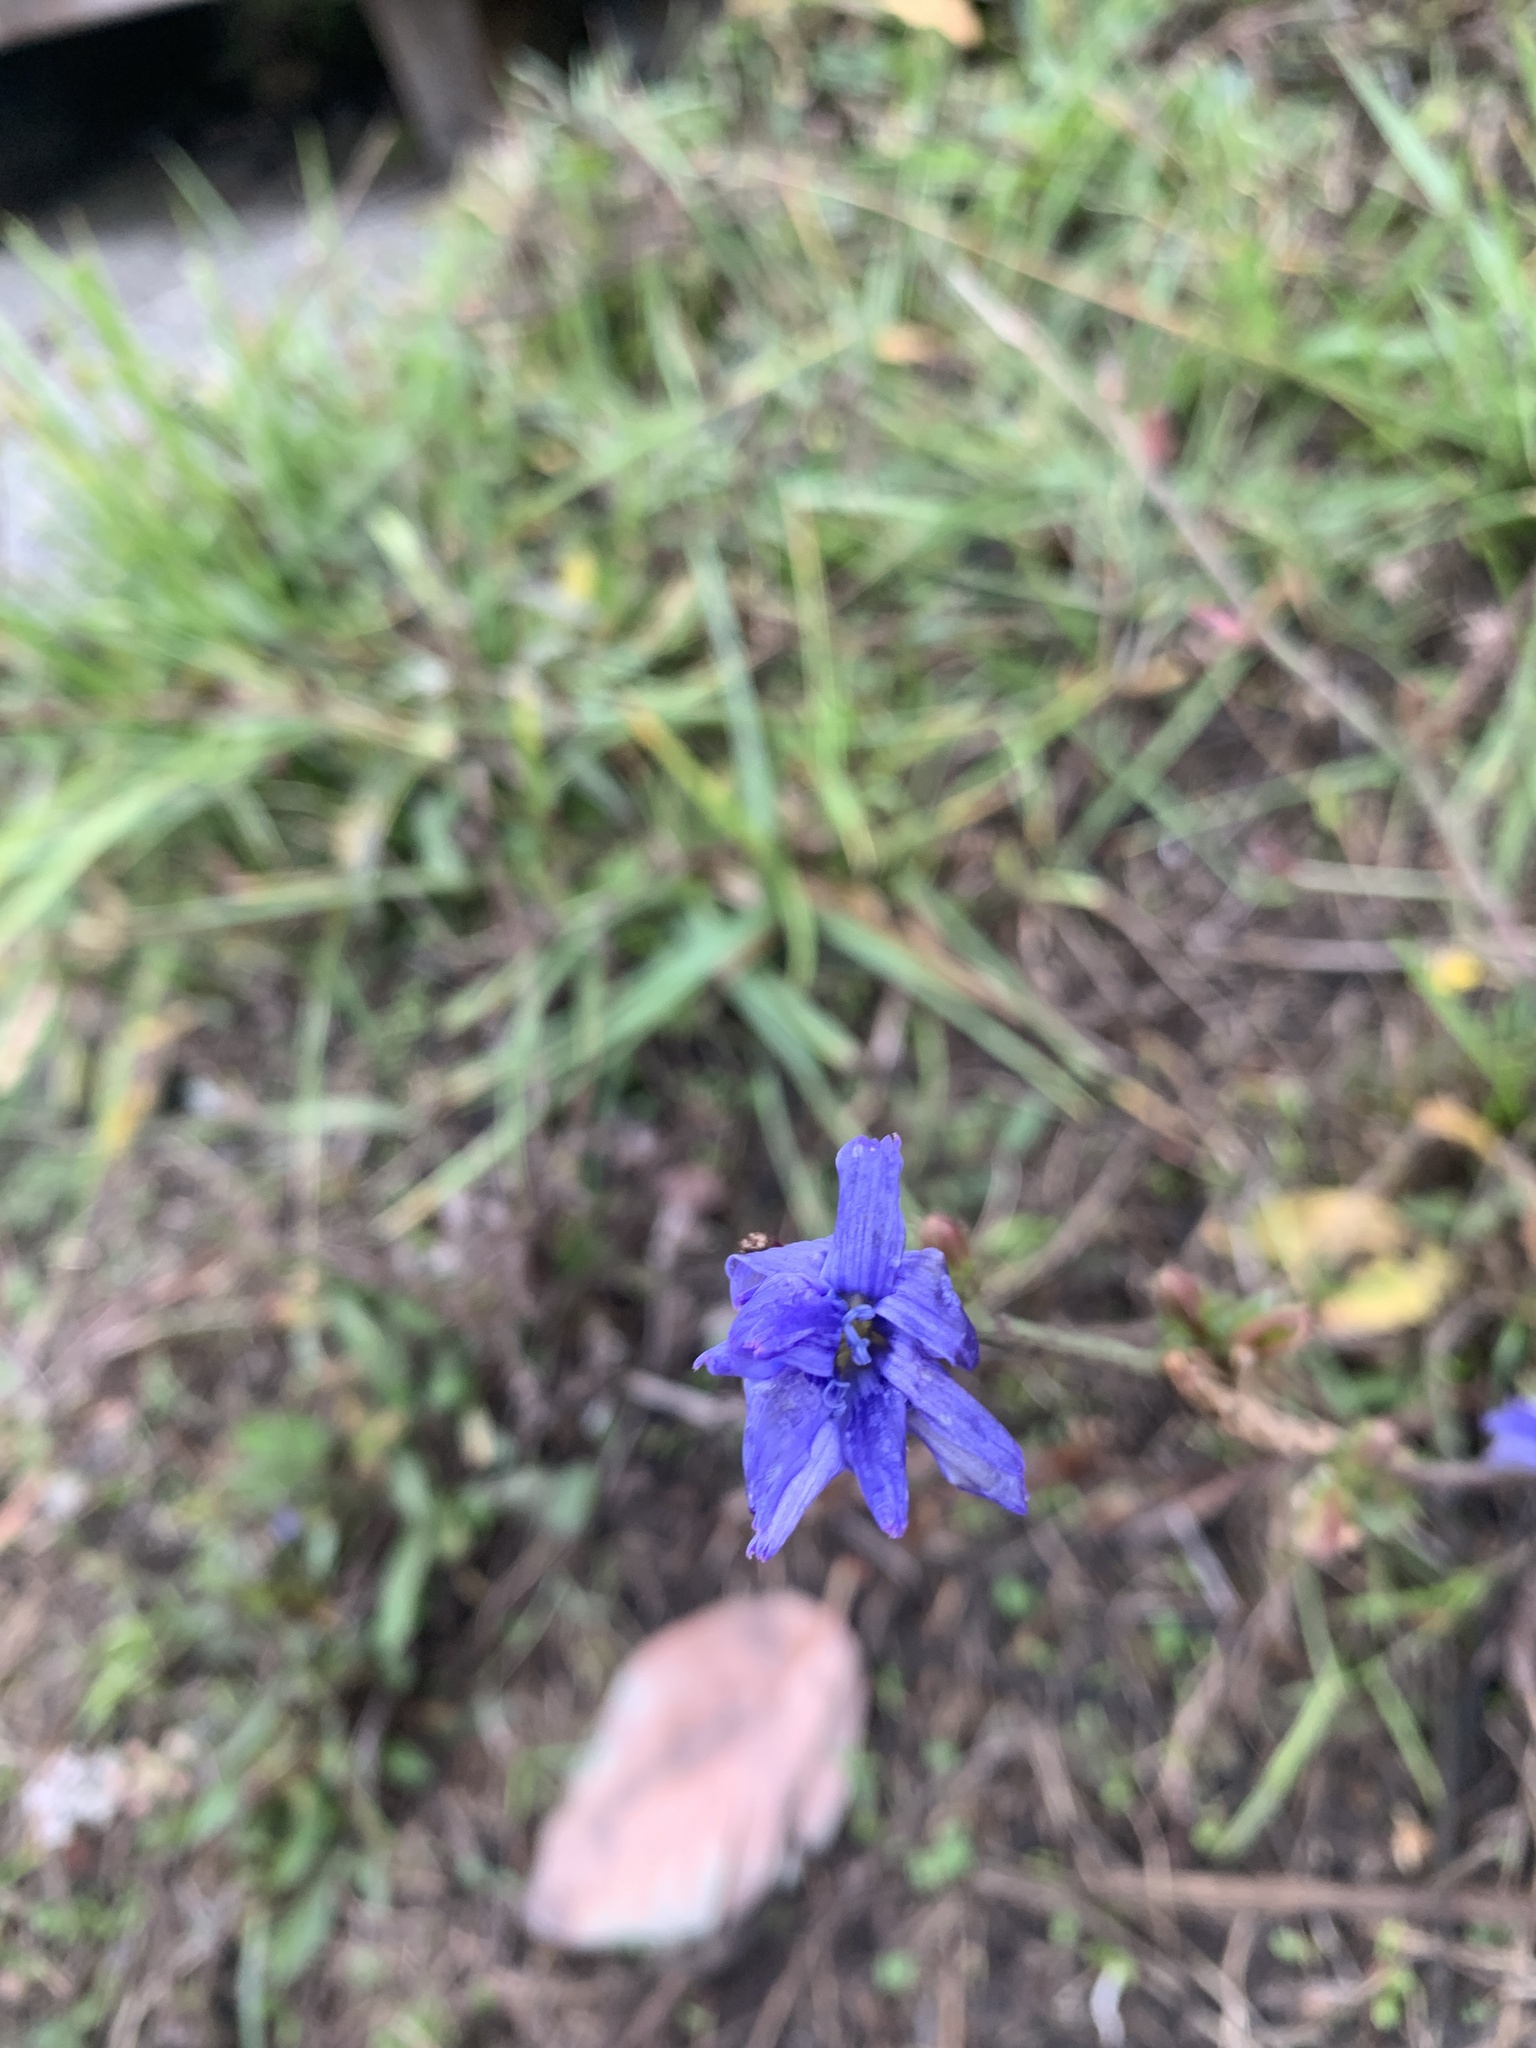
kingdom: Plantae
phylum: Tracheophyta
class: Magnoliopsida
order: Asterales
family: Asteraceae
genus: Cichorium
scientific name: Cichorium intybus
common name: Chicory
